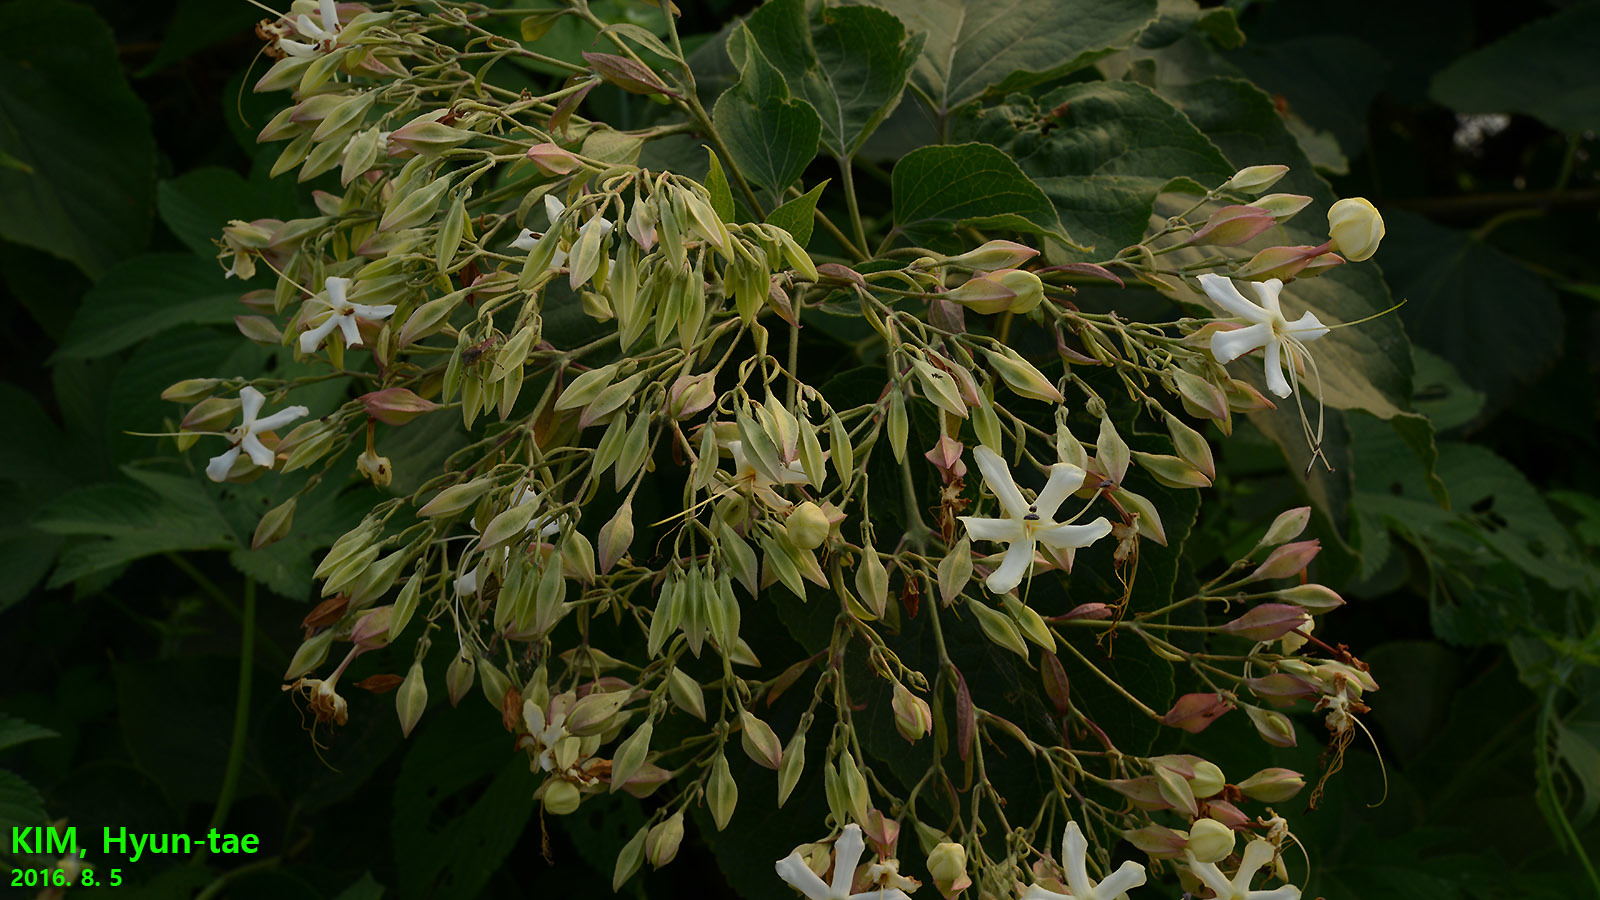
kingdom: Plantae
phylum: Tracheophyta
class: Magnoliopsida
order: Lamiales
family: Lamiaceae
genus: Clerodendrum
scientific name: Clerodendrum trichotomum
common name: Harlequin glorybower
